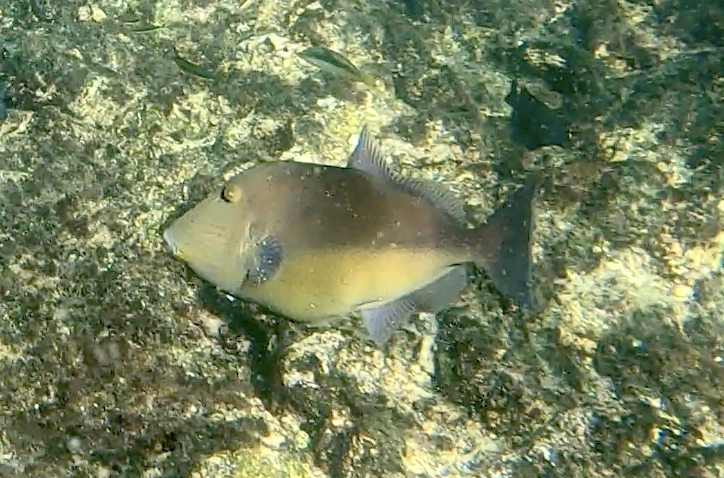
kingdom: Animalia
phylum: Chordata
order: Tetraodontiformes
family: Balistidae
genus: Sufflamen
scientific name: Sufflamen verres
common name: Orangeside triggerfish
